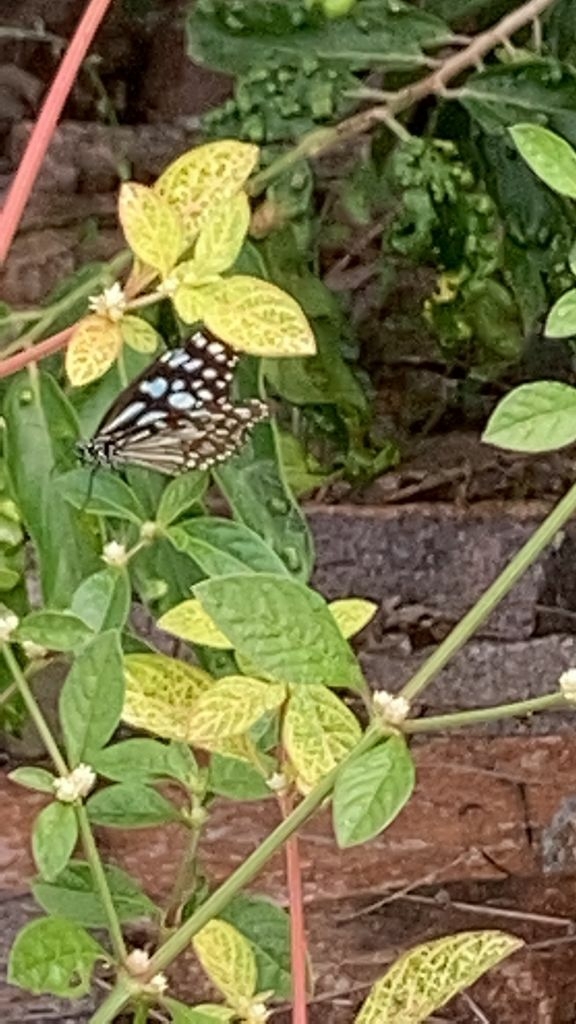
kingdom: Animalia
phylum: Arthropoda
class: Insecta
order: Lepidoptera
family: Nymphalidae
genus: Tirumala
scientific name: Tirumala limniace
